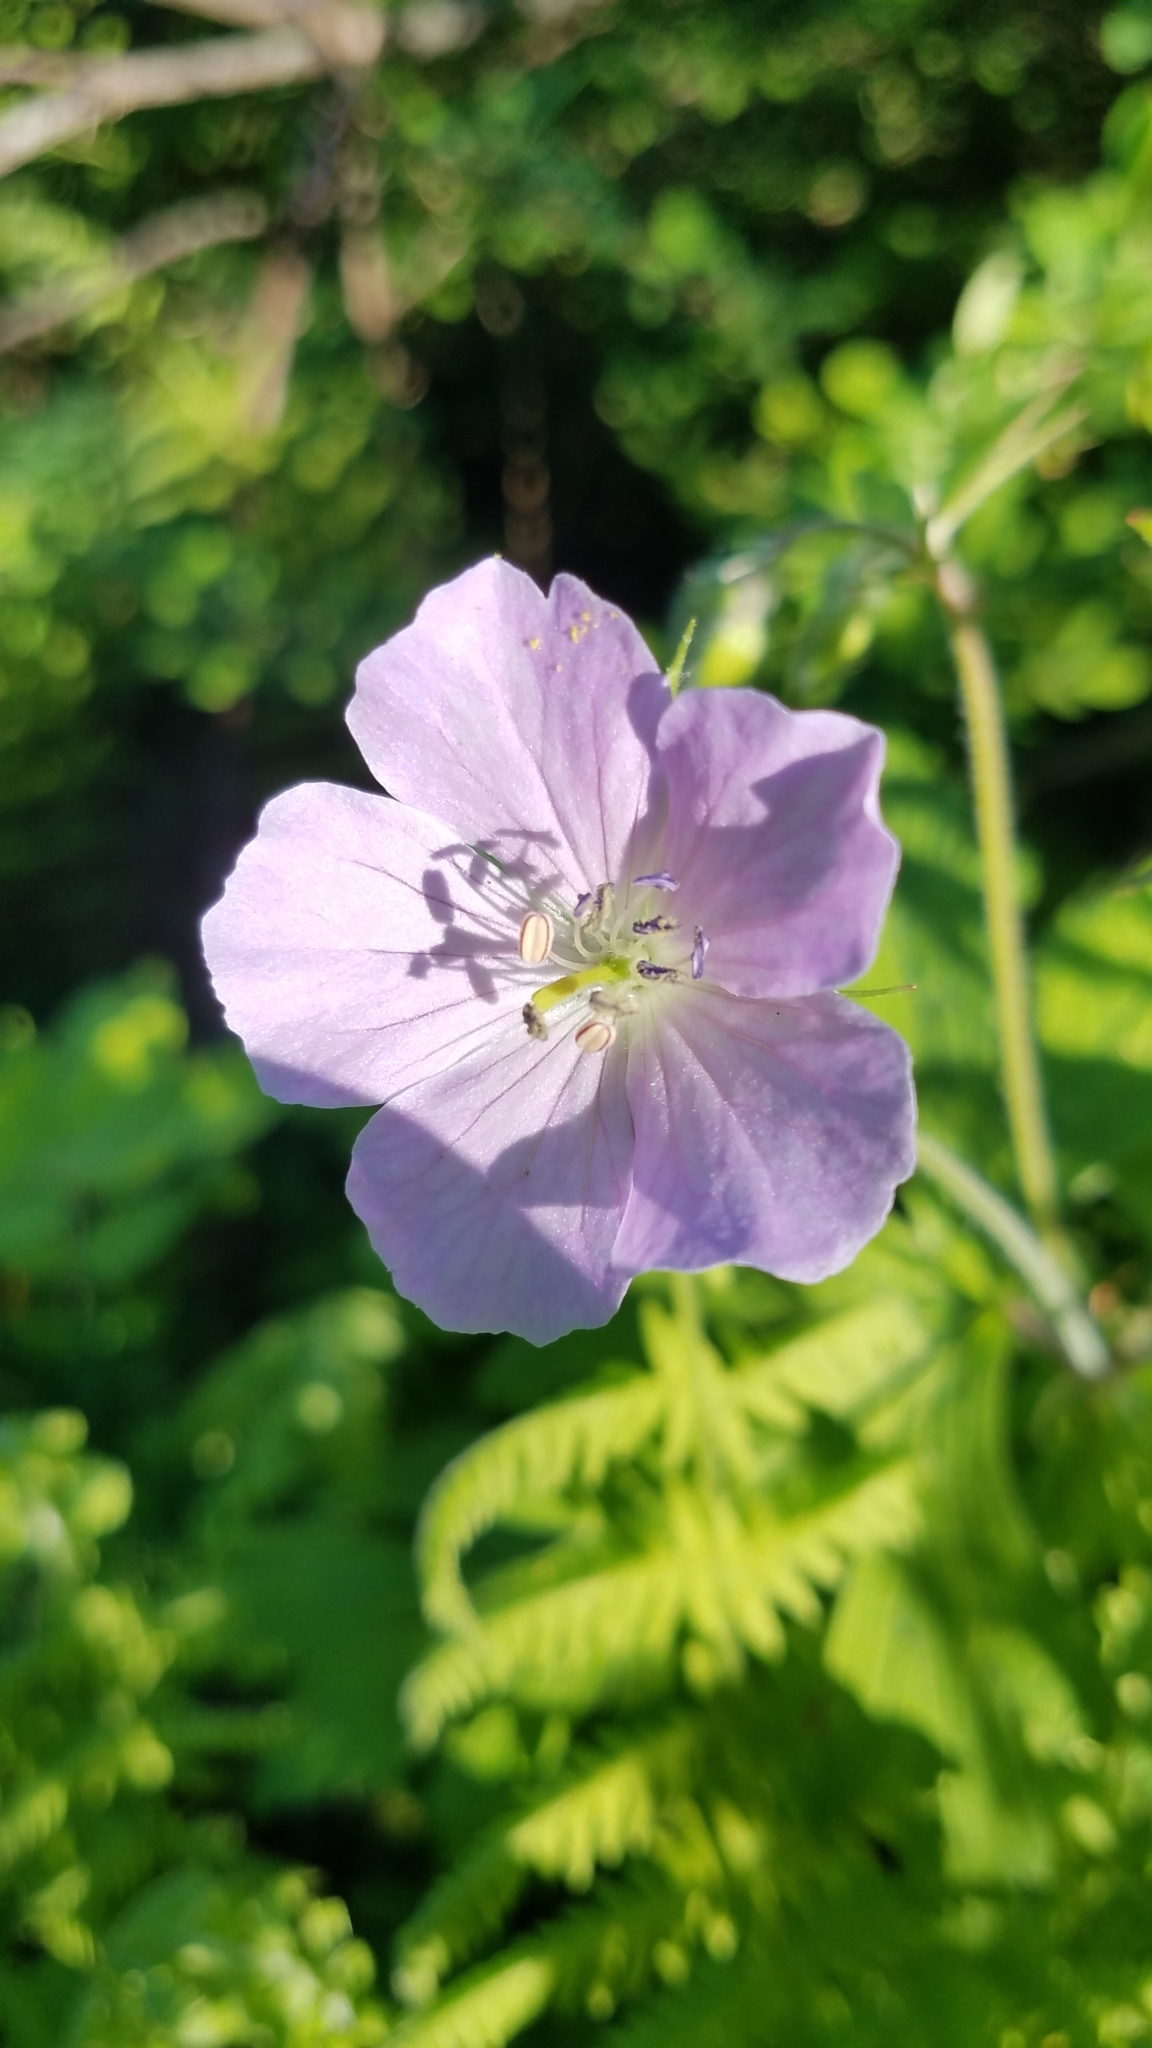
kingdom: Plantae
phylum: Tracheophyta
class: Magnoliopsida
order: Geraniales
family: Geraniaceae
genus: Geranium
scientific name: Geranium maculatum
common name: Spotted geranium
